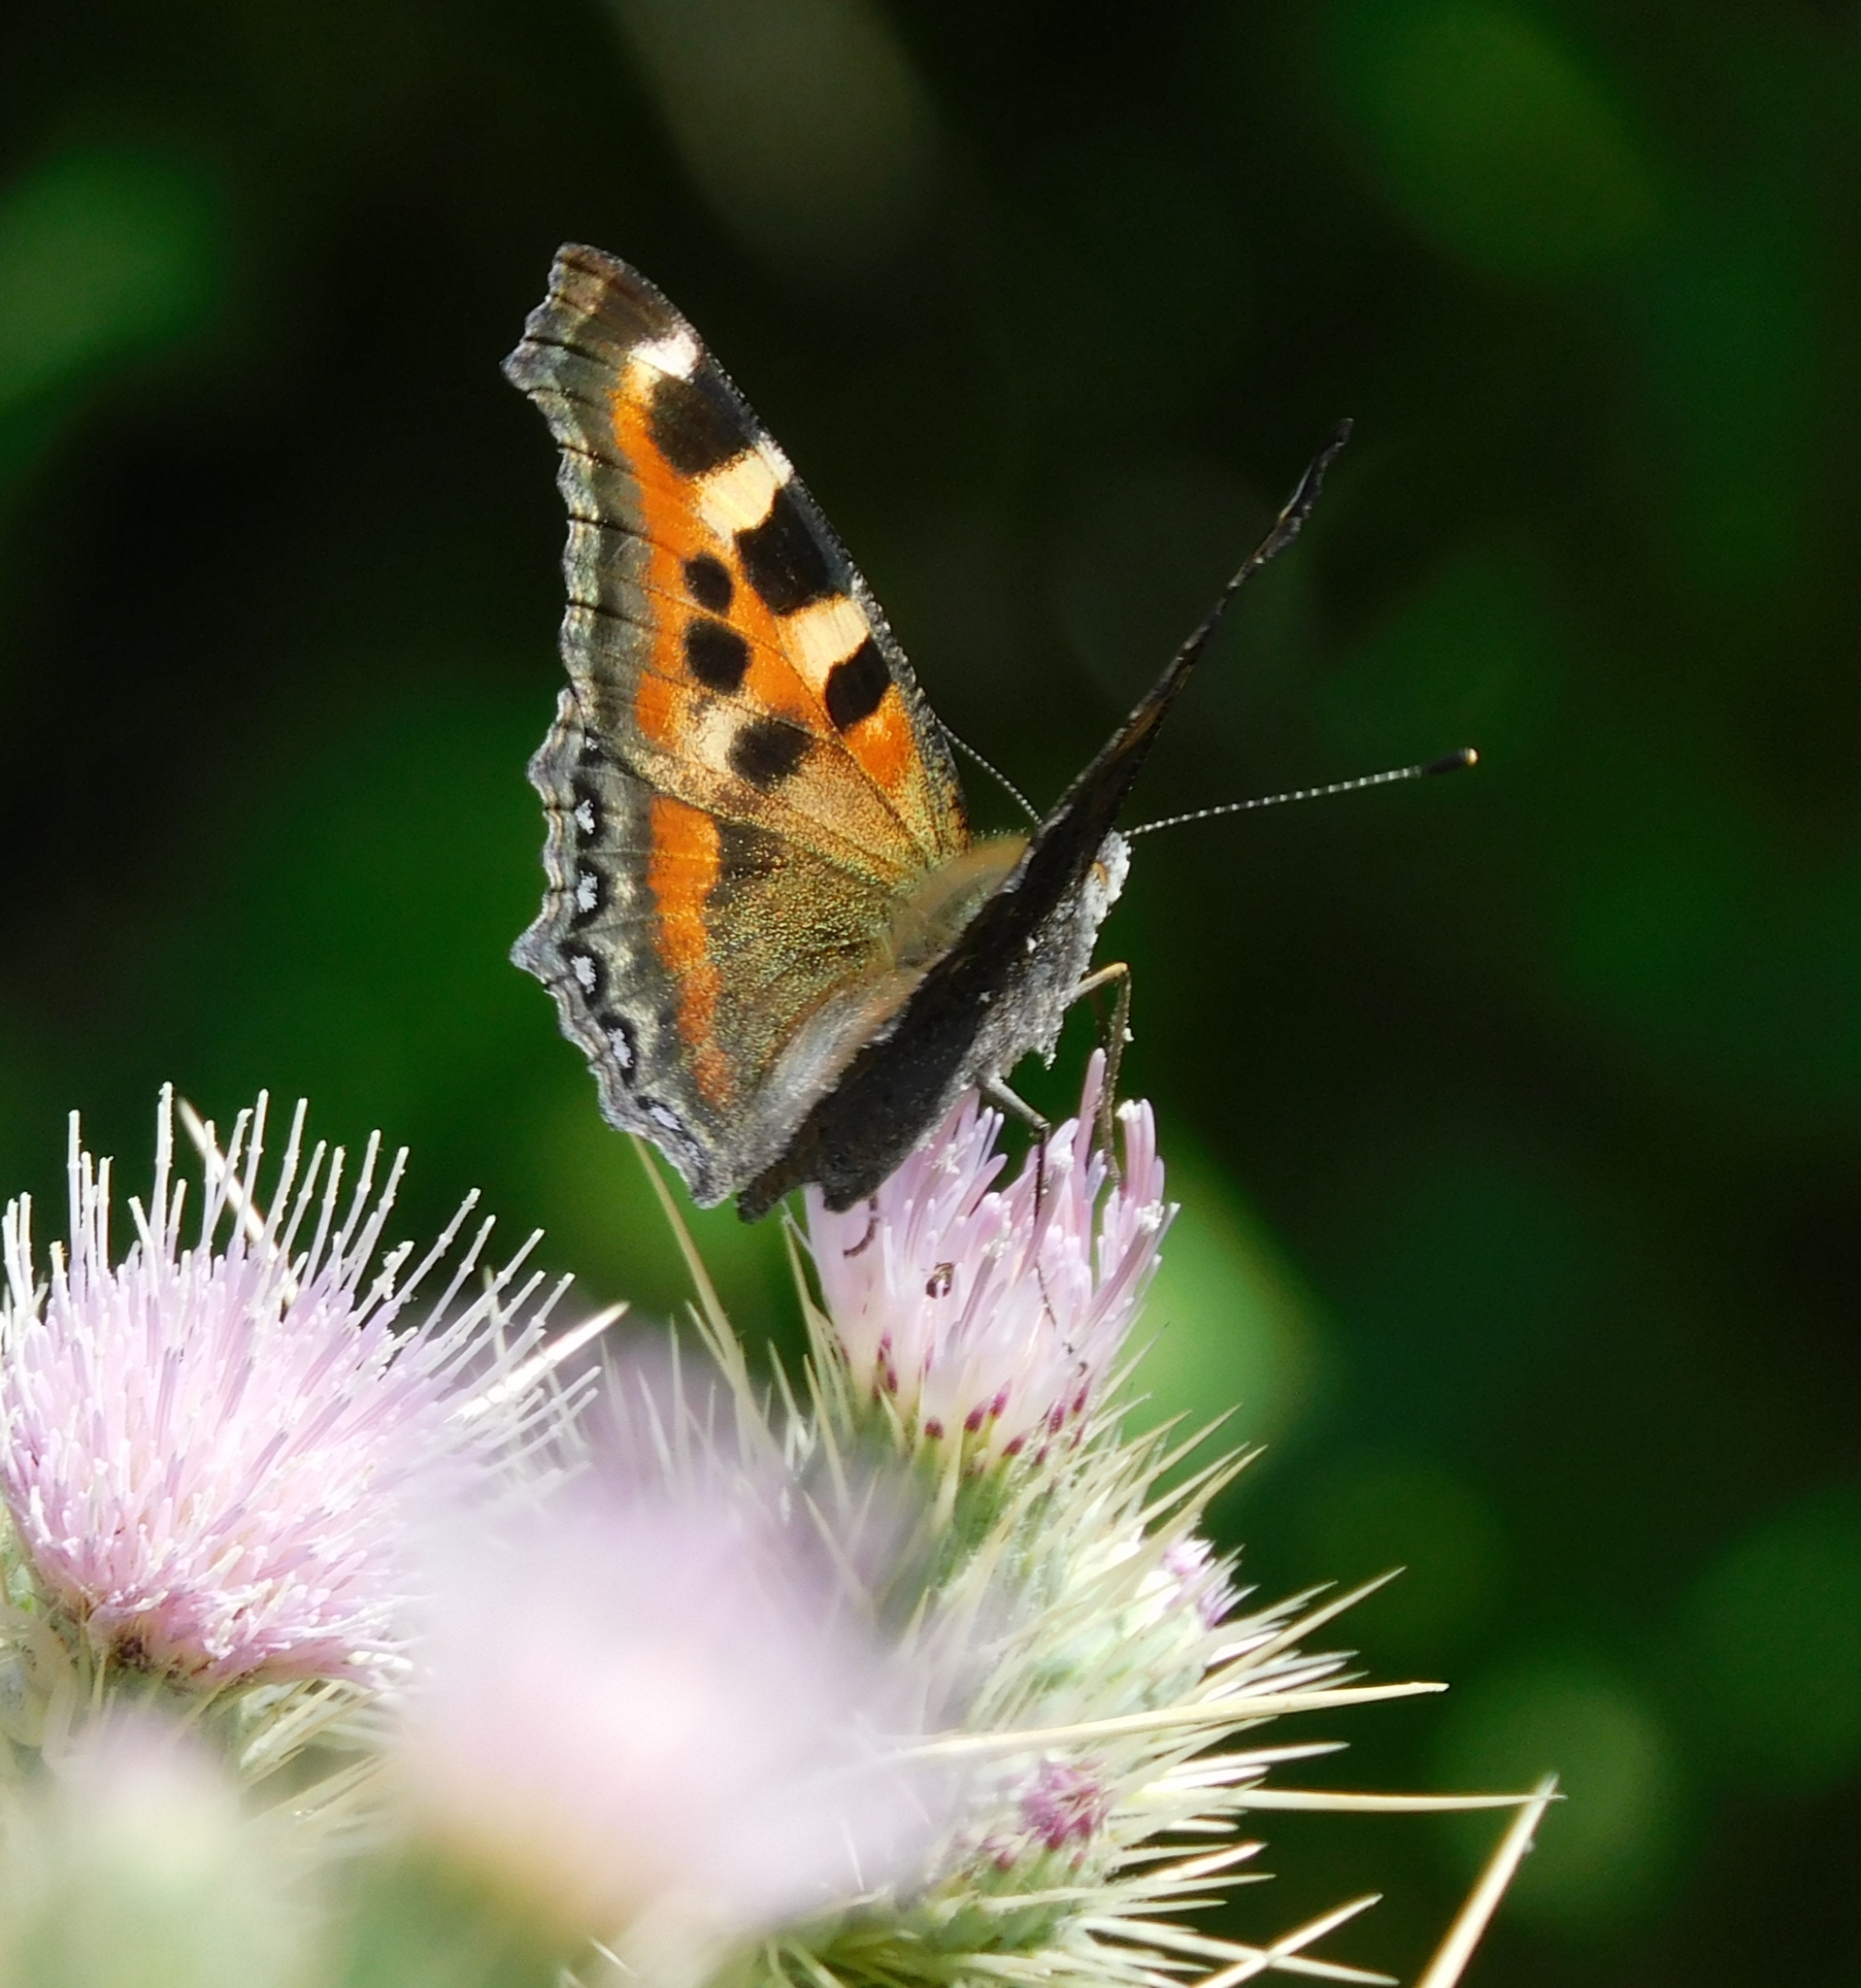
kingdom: Animalia
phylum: Arthropoda
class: Insecta
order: Lepidoptera
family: Nymphalidae
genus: Aglais
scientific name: Aglais caschmirensis
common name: Indian tortoiseshell
